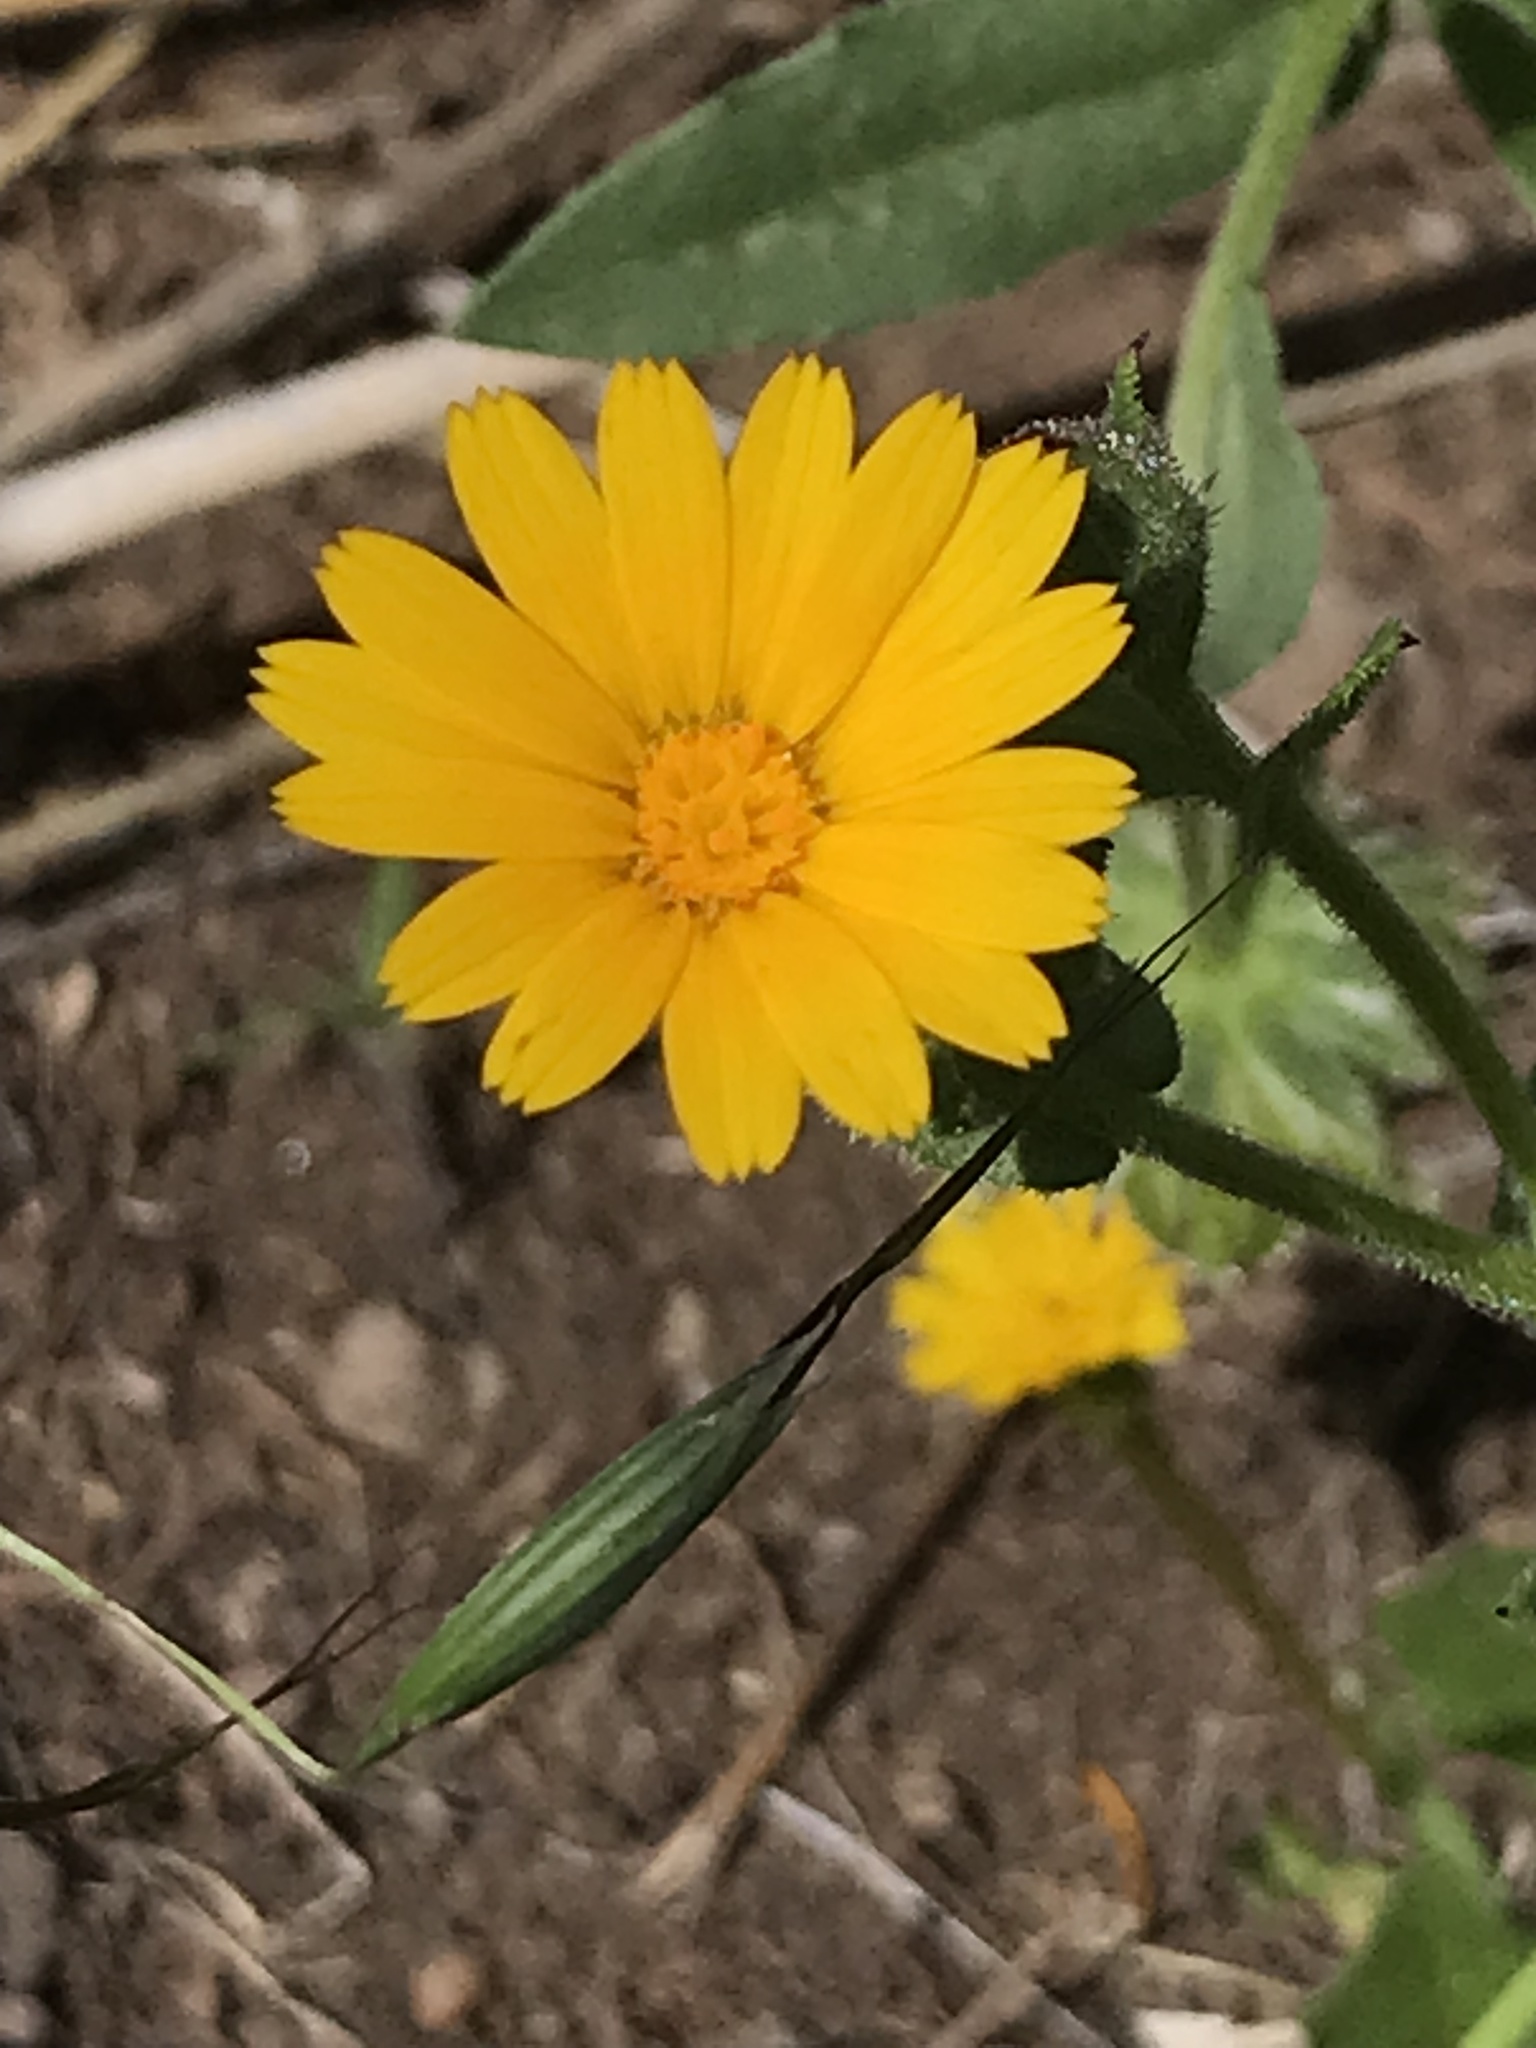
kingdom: Plantae
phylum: Tracheophyta
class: Magnoliopsida
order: Asterales
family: Asteraceae
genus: Calendula
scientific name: Calendula arvensis
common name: Field marigold
